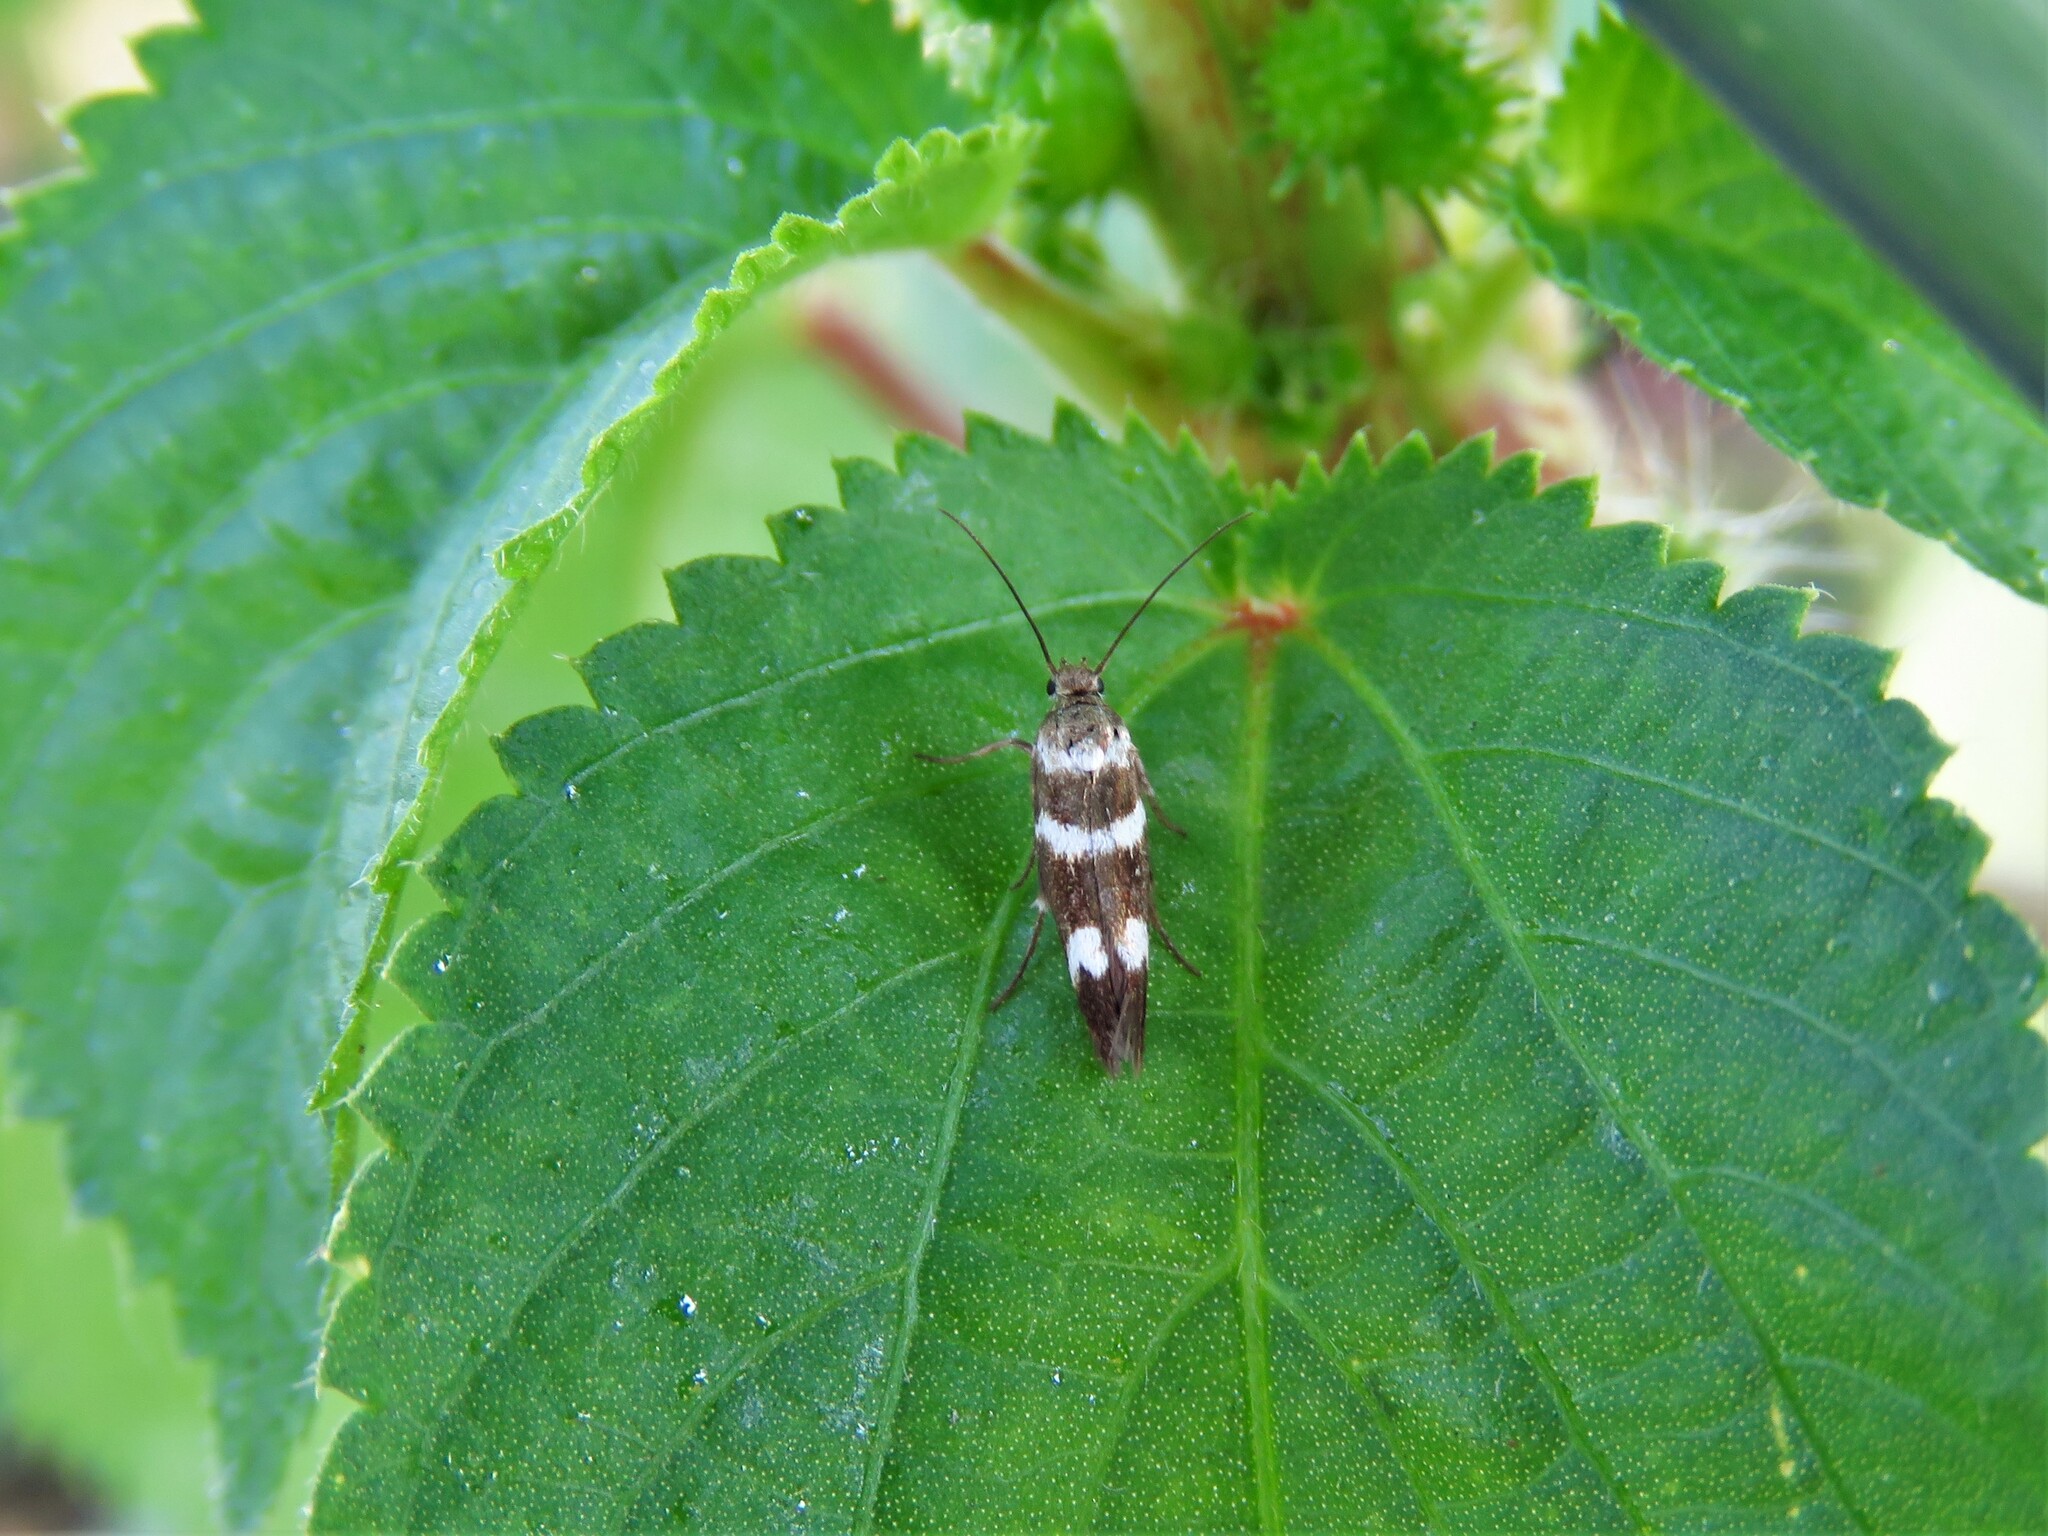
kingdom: Animalia
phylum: Arthropoda
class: Insecta
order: Lepidoptera
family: Scythrididae
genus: Scythris
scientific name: Scythris trivinctella
